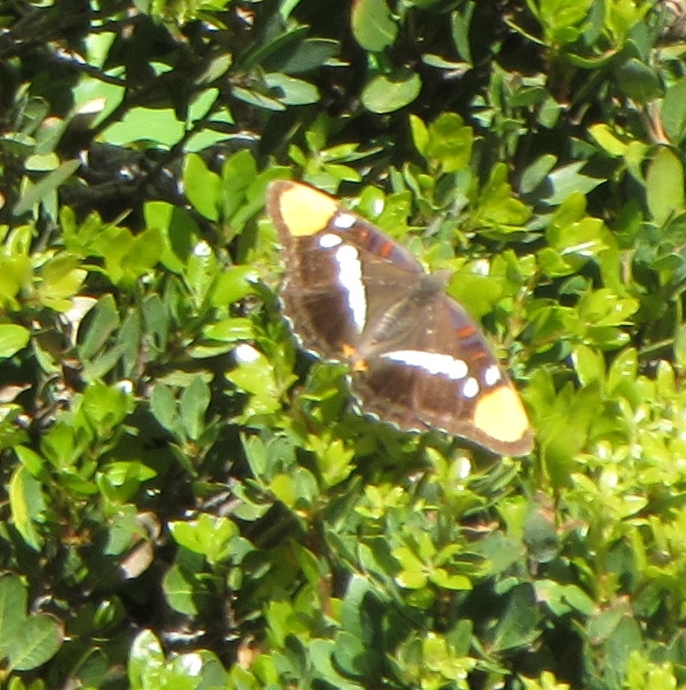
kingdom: Animalia
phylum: Arthropoda
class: Insecta
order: Lepidoptera
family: Nymphalidae
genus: Limenitis
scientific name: Limenitis bredowii
